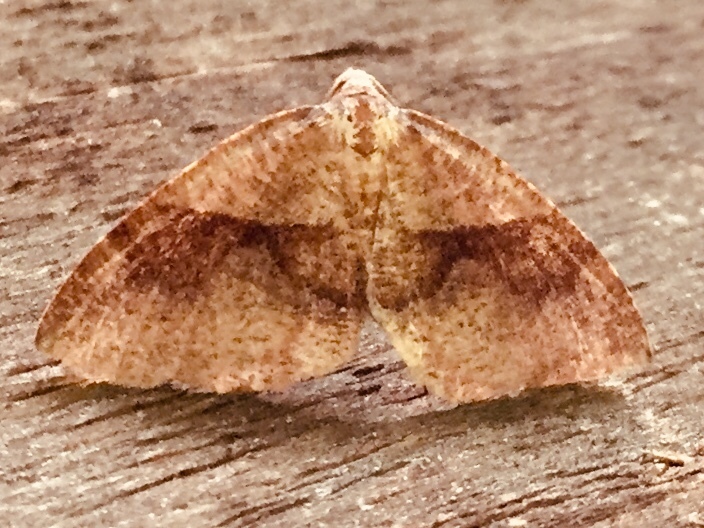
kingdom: Animalia
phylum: Arthropoda
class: Insecta
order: Lepidoptera
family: Geometridae
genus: Plagodis
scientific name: Plagodis pulveraria
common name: Barred umber
